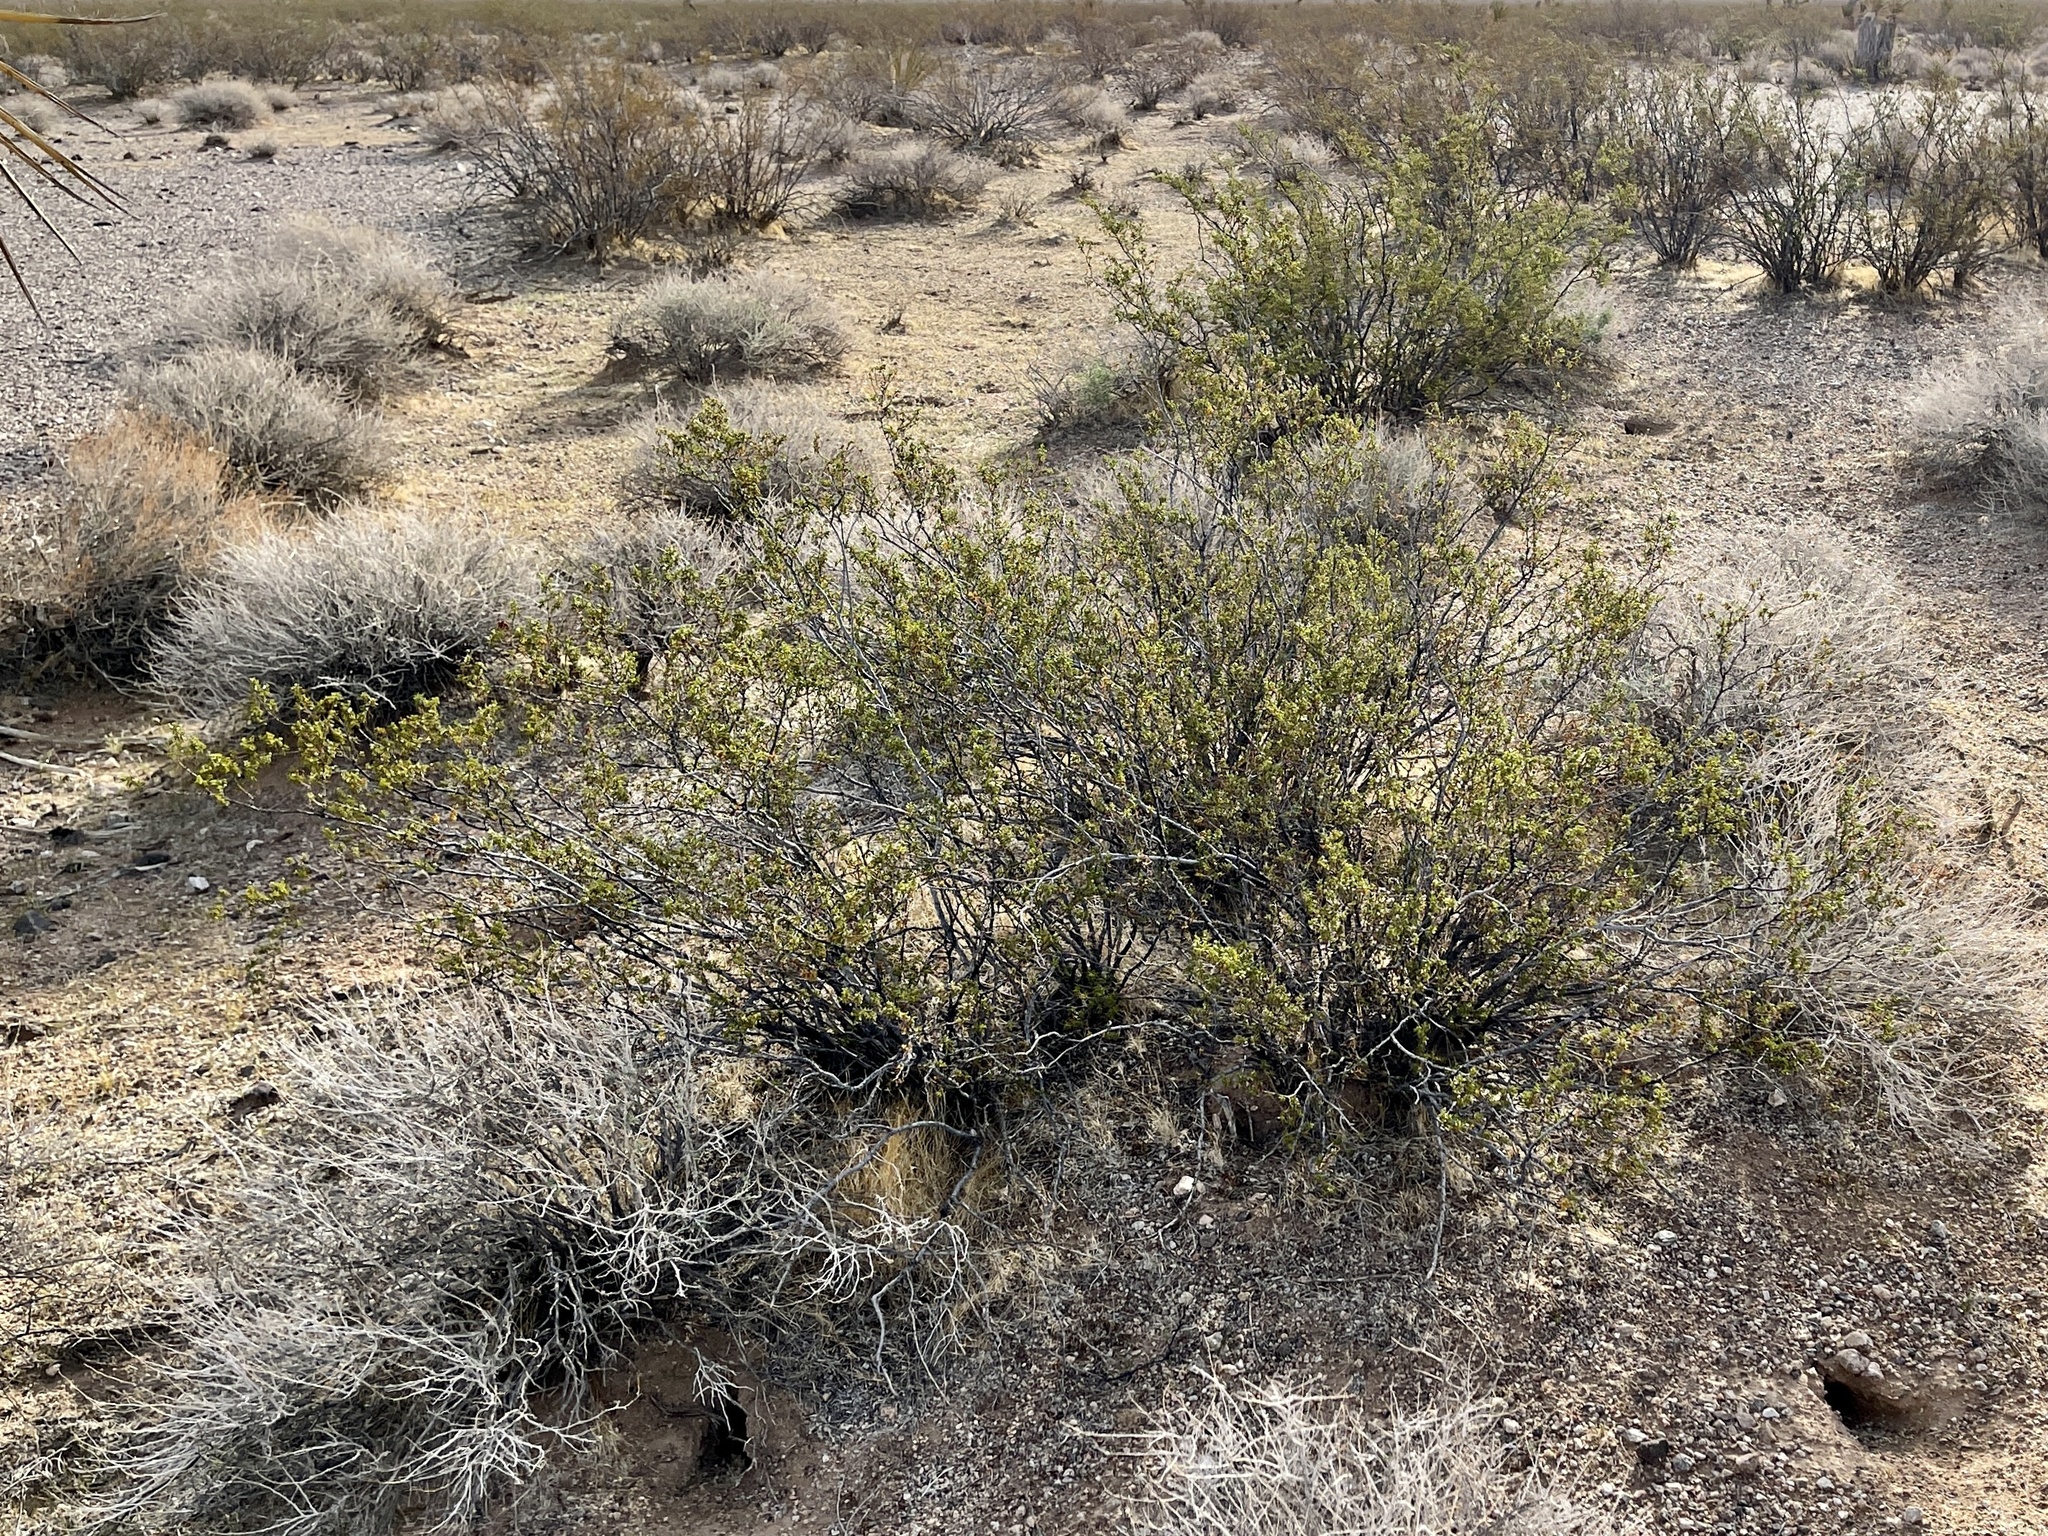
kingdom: Plantae
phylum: Tracheophyta
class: Magnoliopsida
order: Zygophyllales
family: Zygophyllaceae
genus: Larrea
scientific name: Larrea tridentata
